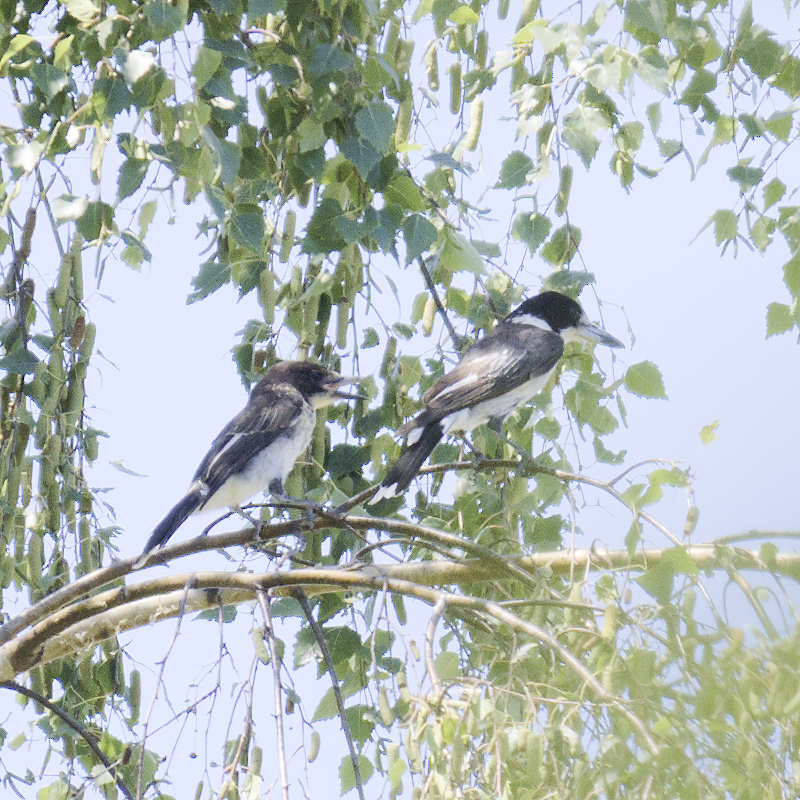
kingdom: Animalia
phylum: Chordata
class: Aves
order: Passeriformes
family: Cracticidae
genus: Cracticus
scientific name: Cracticus torquatus
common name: Grey butcherbird
